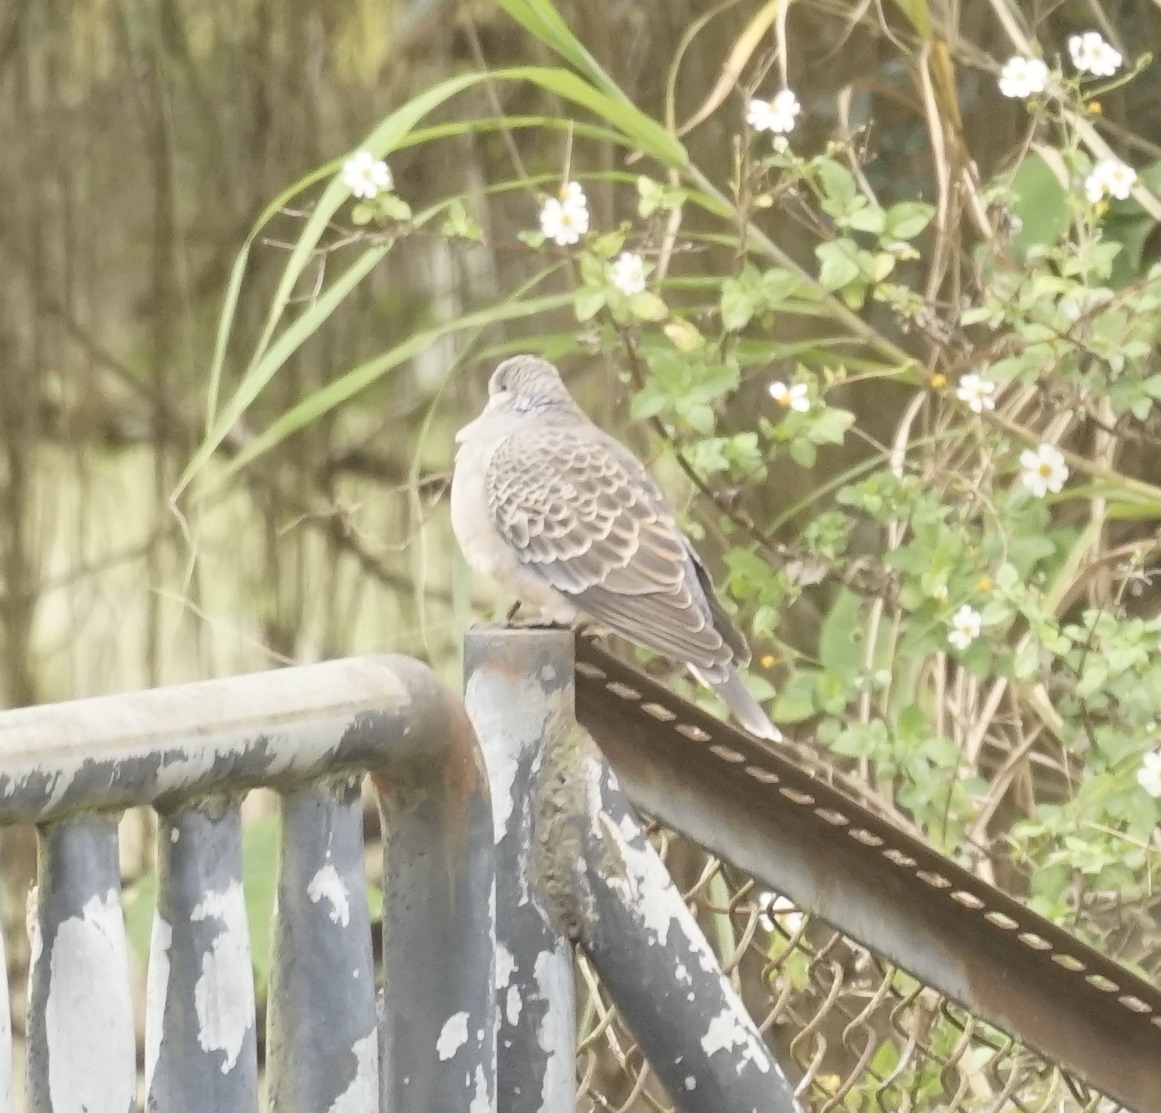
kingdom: Animalia
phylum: Chordata
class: Aves
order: Columbiformes
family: Columbidae
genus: Streptopelia
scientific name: Streptopelia orientalis
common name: Oriental turtle dove
